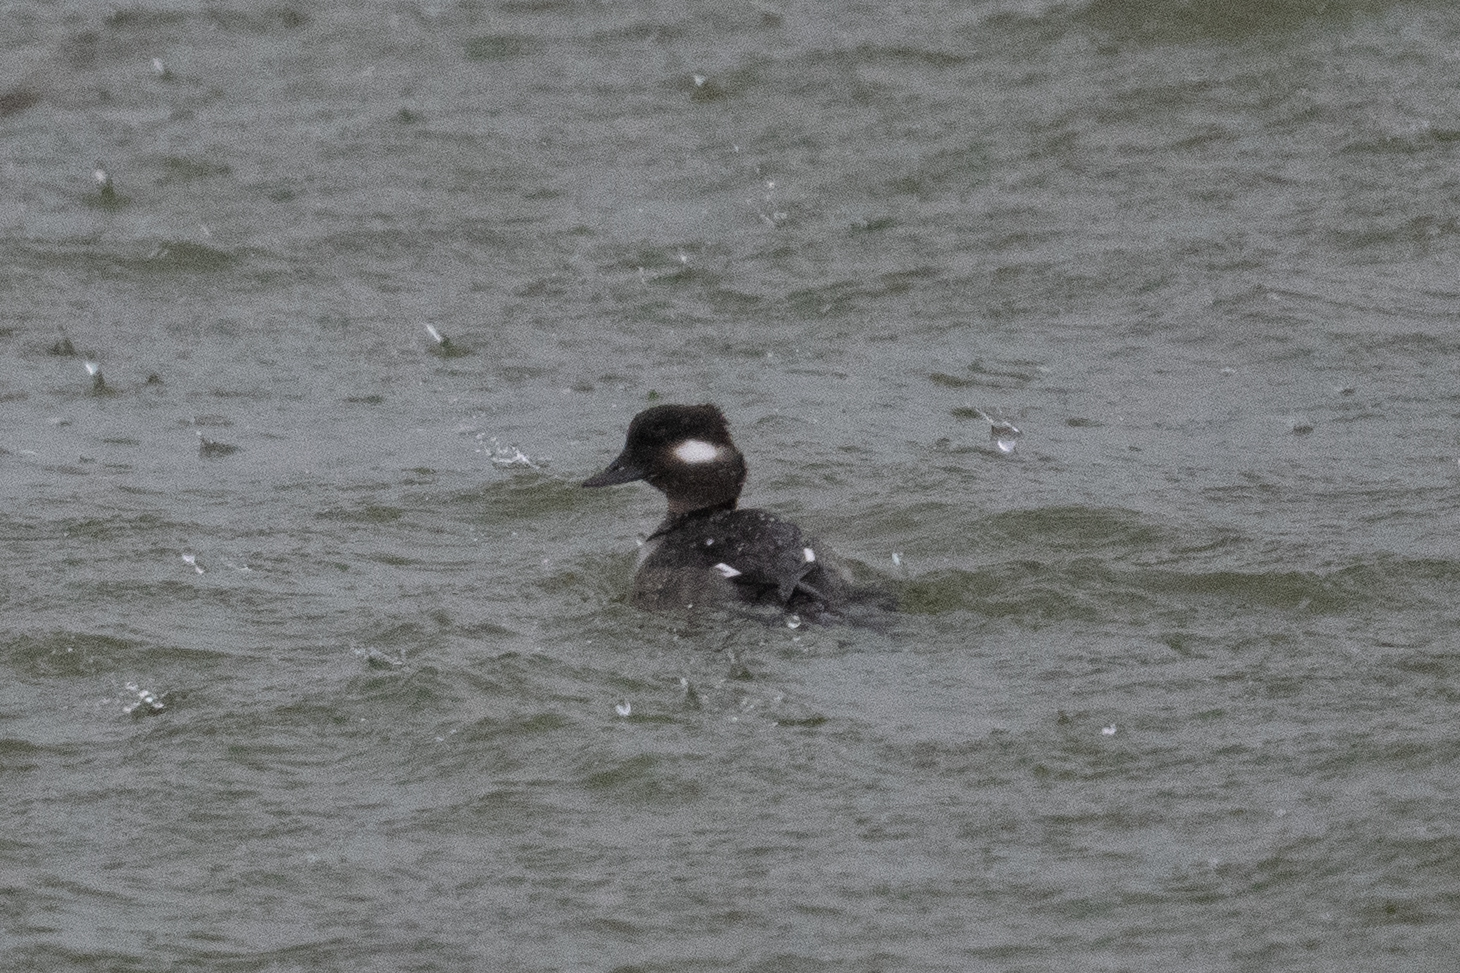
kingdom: Animalia
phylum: Chordata
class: Aves
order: Anseriformes
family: Anatidae
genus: Bucephala
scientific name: Bucephala albeola
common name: Bufflehead
